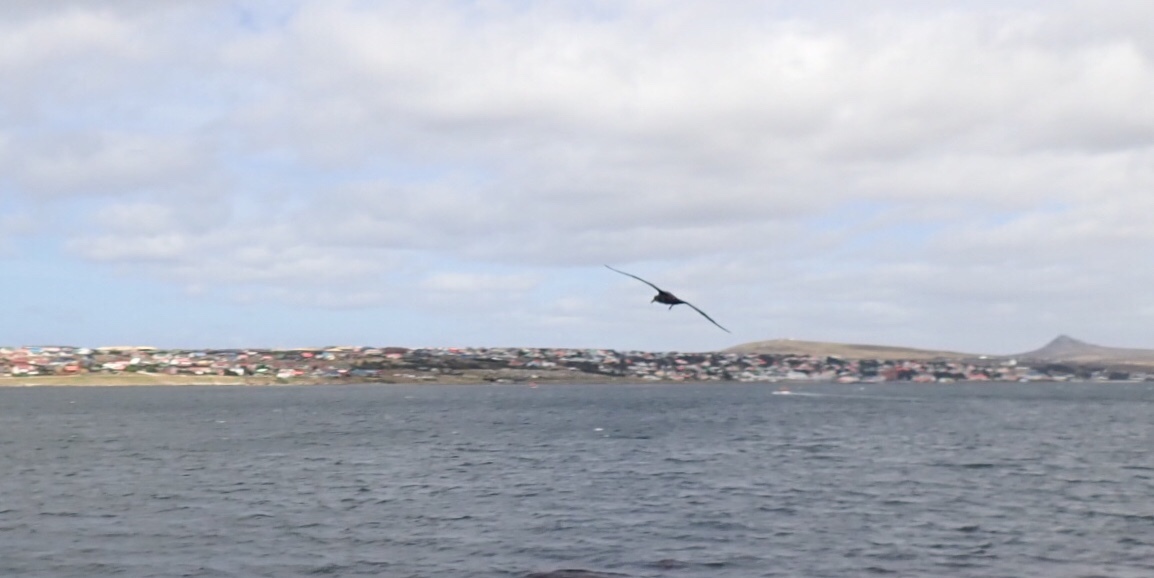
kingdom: Animalia
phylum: Chordata
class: Aves
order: Procellariiformes
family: Procellariidae
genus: Macronectes
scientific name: Macronectes
